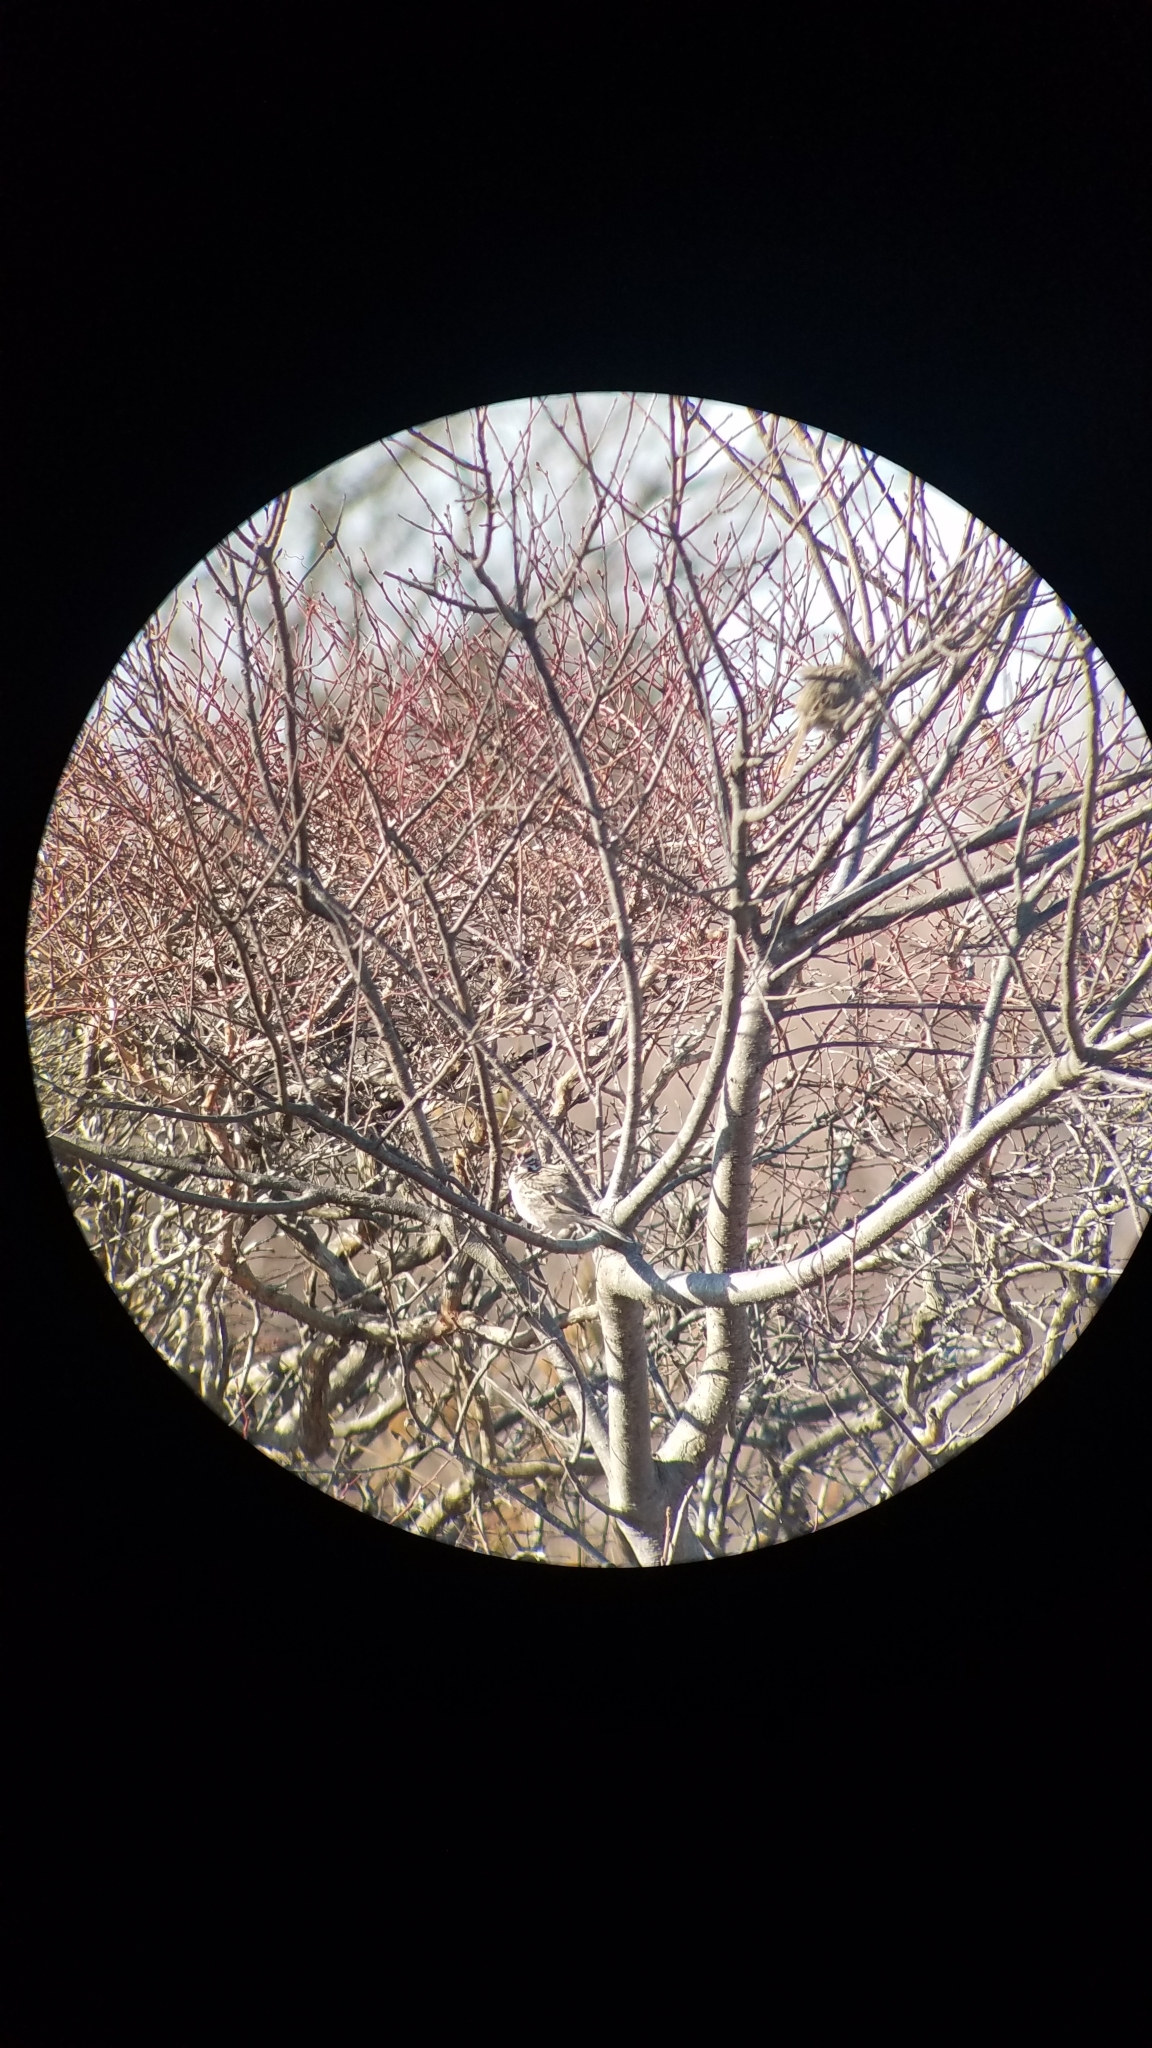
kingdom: Animalia
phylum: Chordata
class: Aves
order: Passeriformes
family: Passerellidae
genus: Chondestes
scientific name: Chondestes grammacus
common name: Lark sparrow
